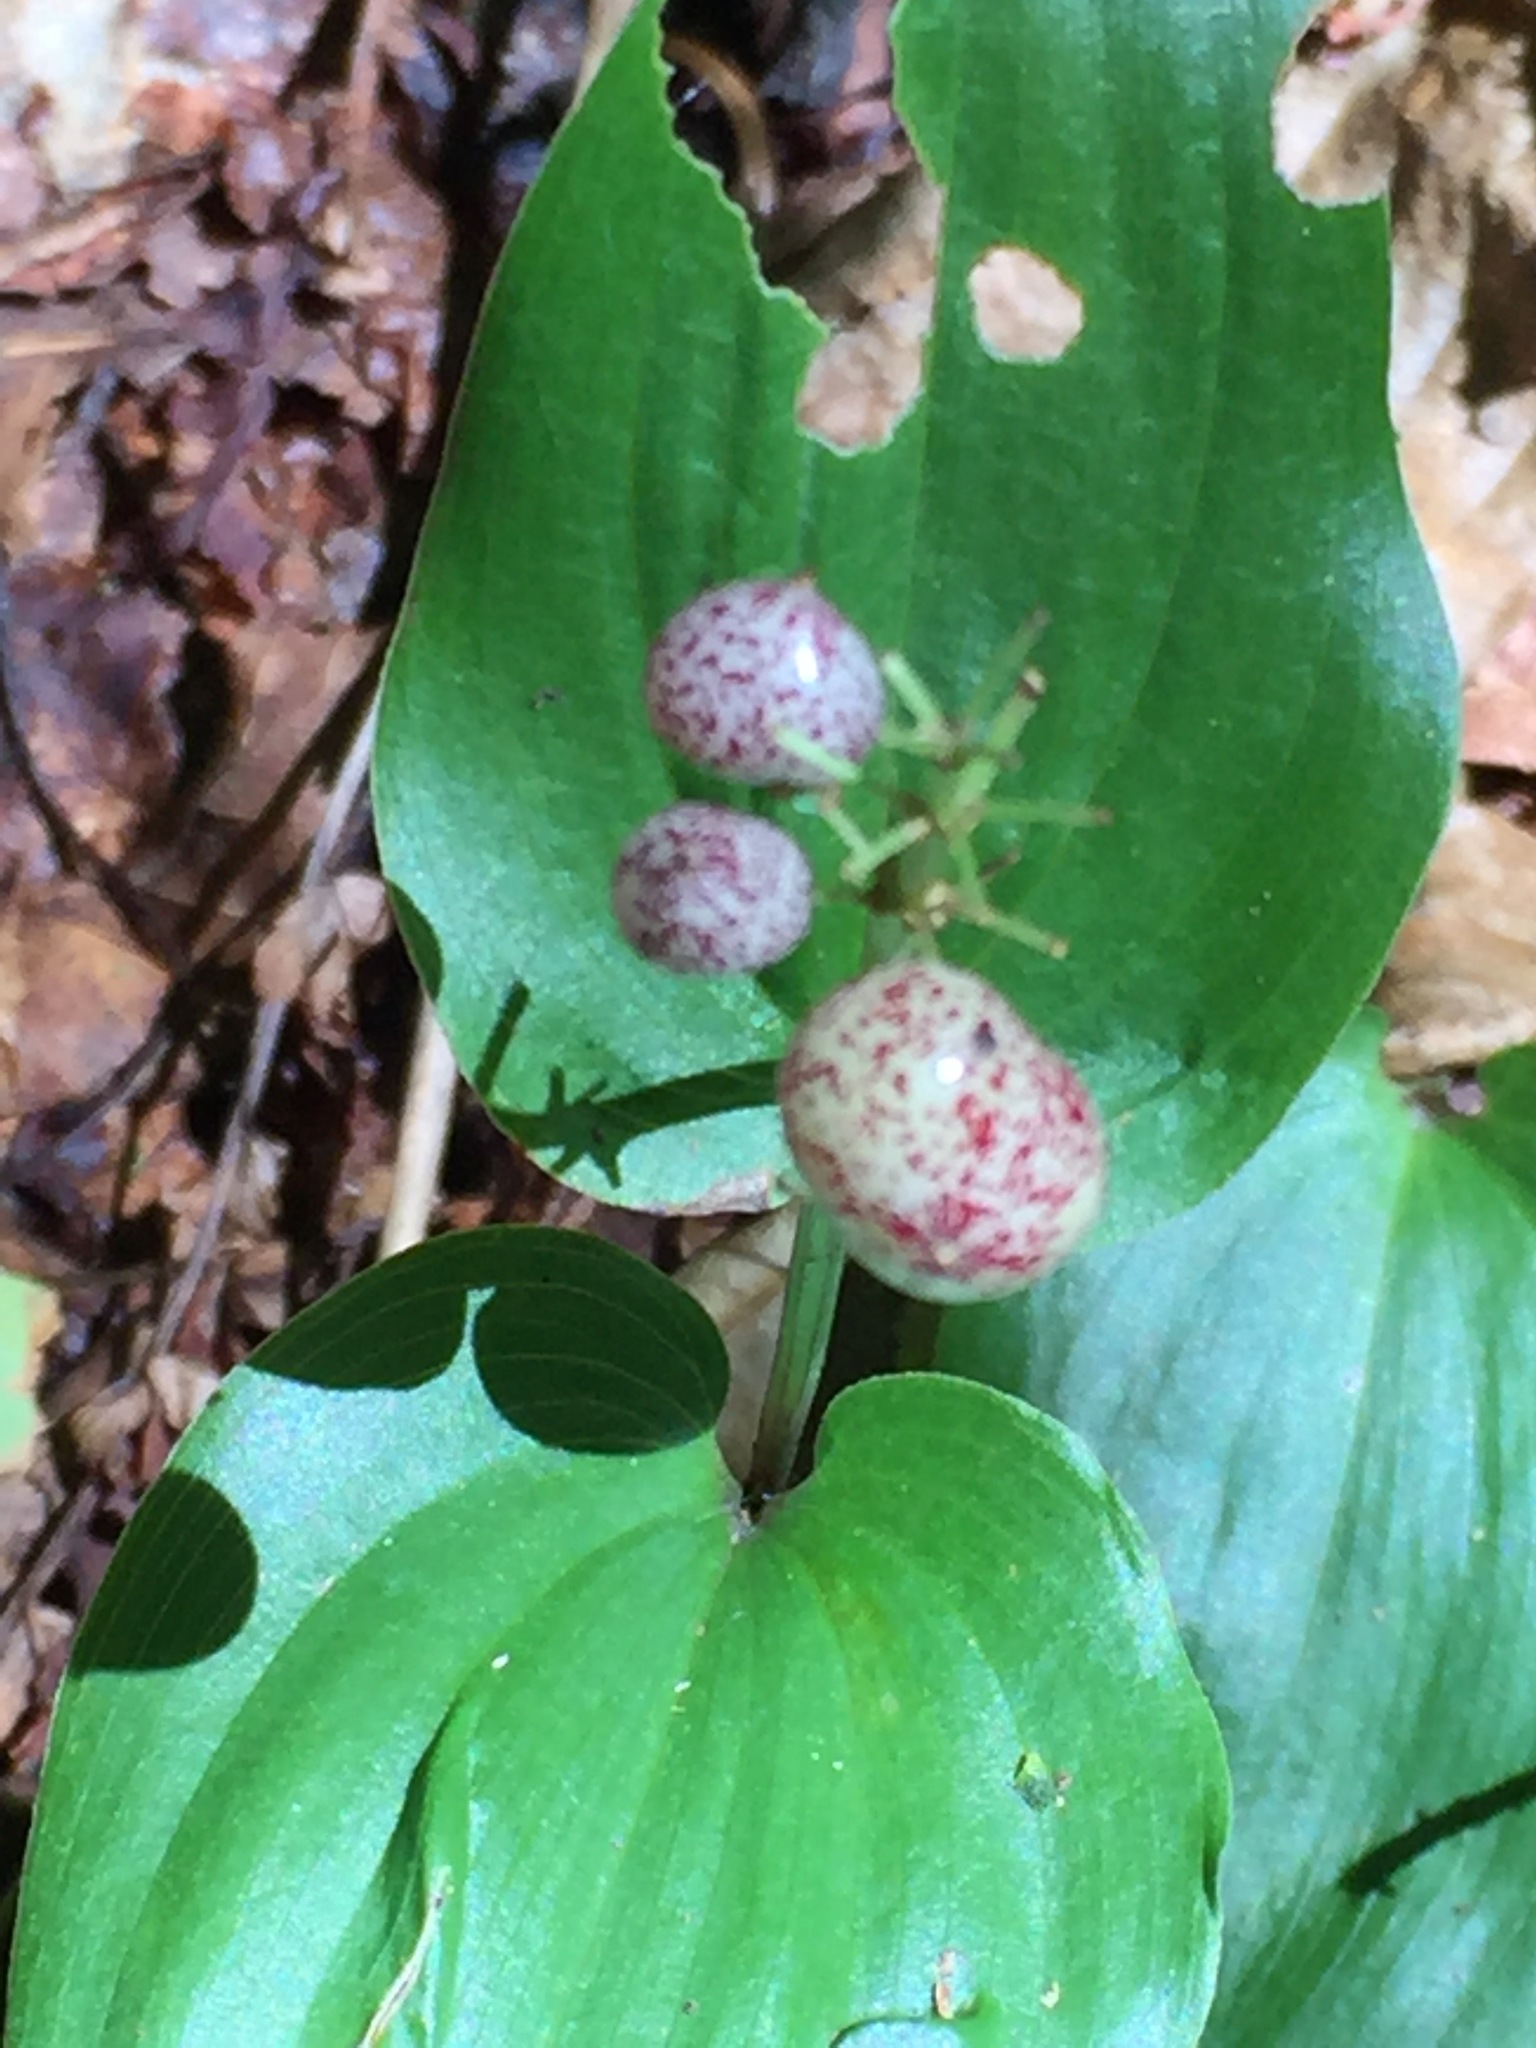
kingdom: Plantae
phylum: Tracheophyta
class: Liliopsida
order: Asparagales
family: Asparagaceae
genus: Maianthemum
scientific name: Maianthemum canadense
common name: False lily-of-the-valley
